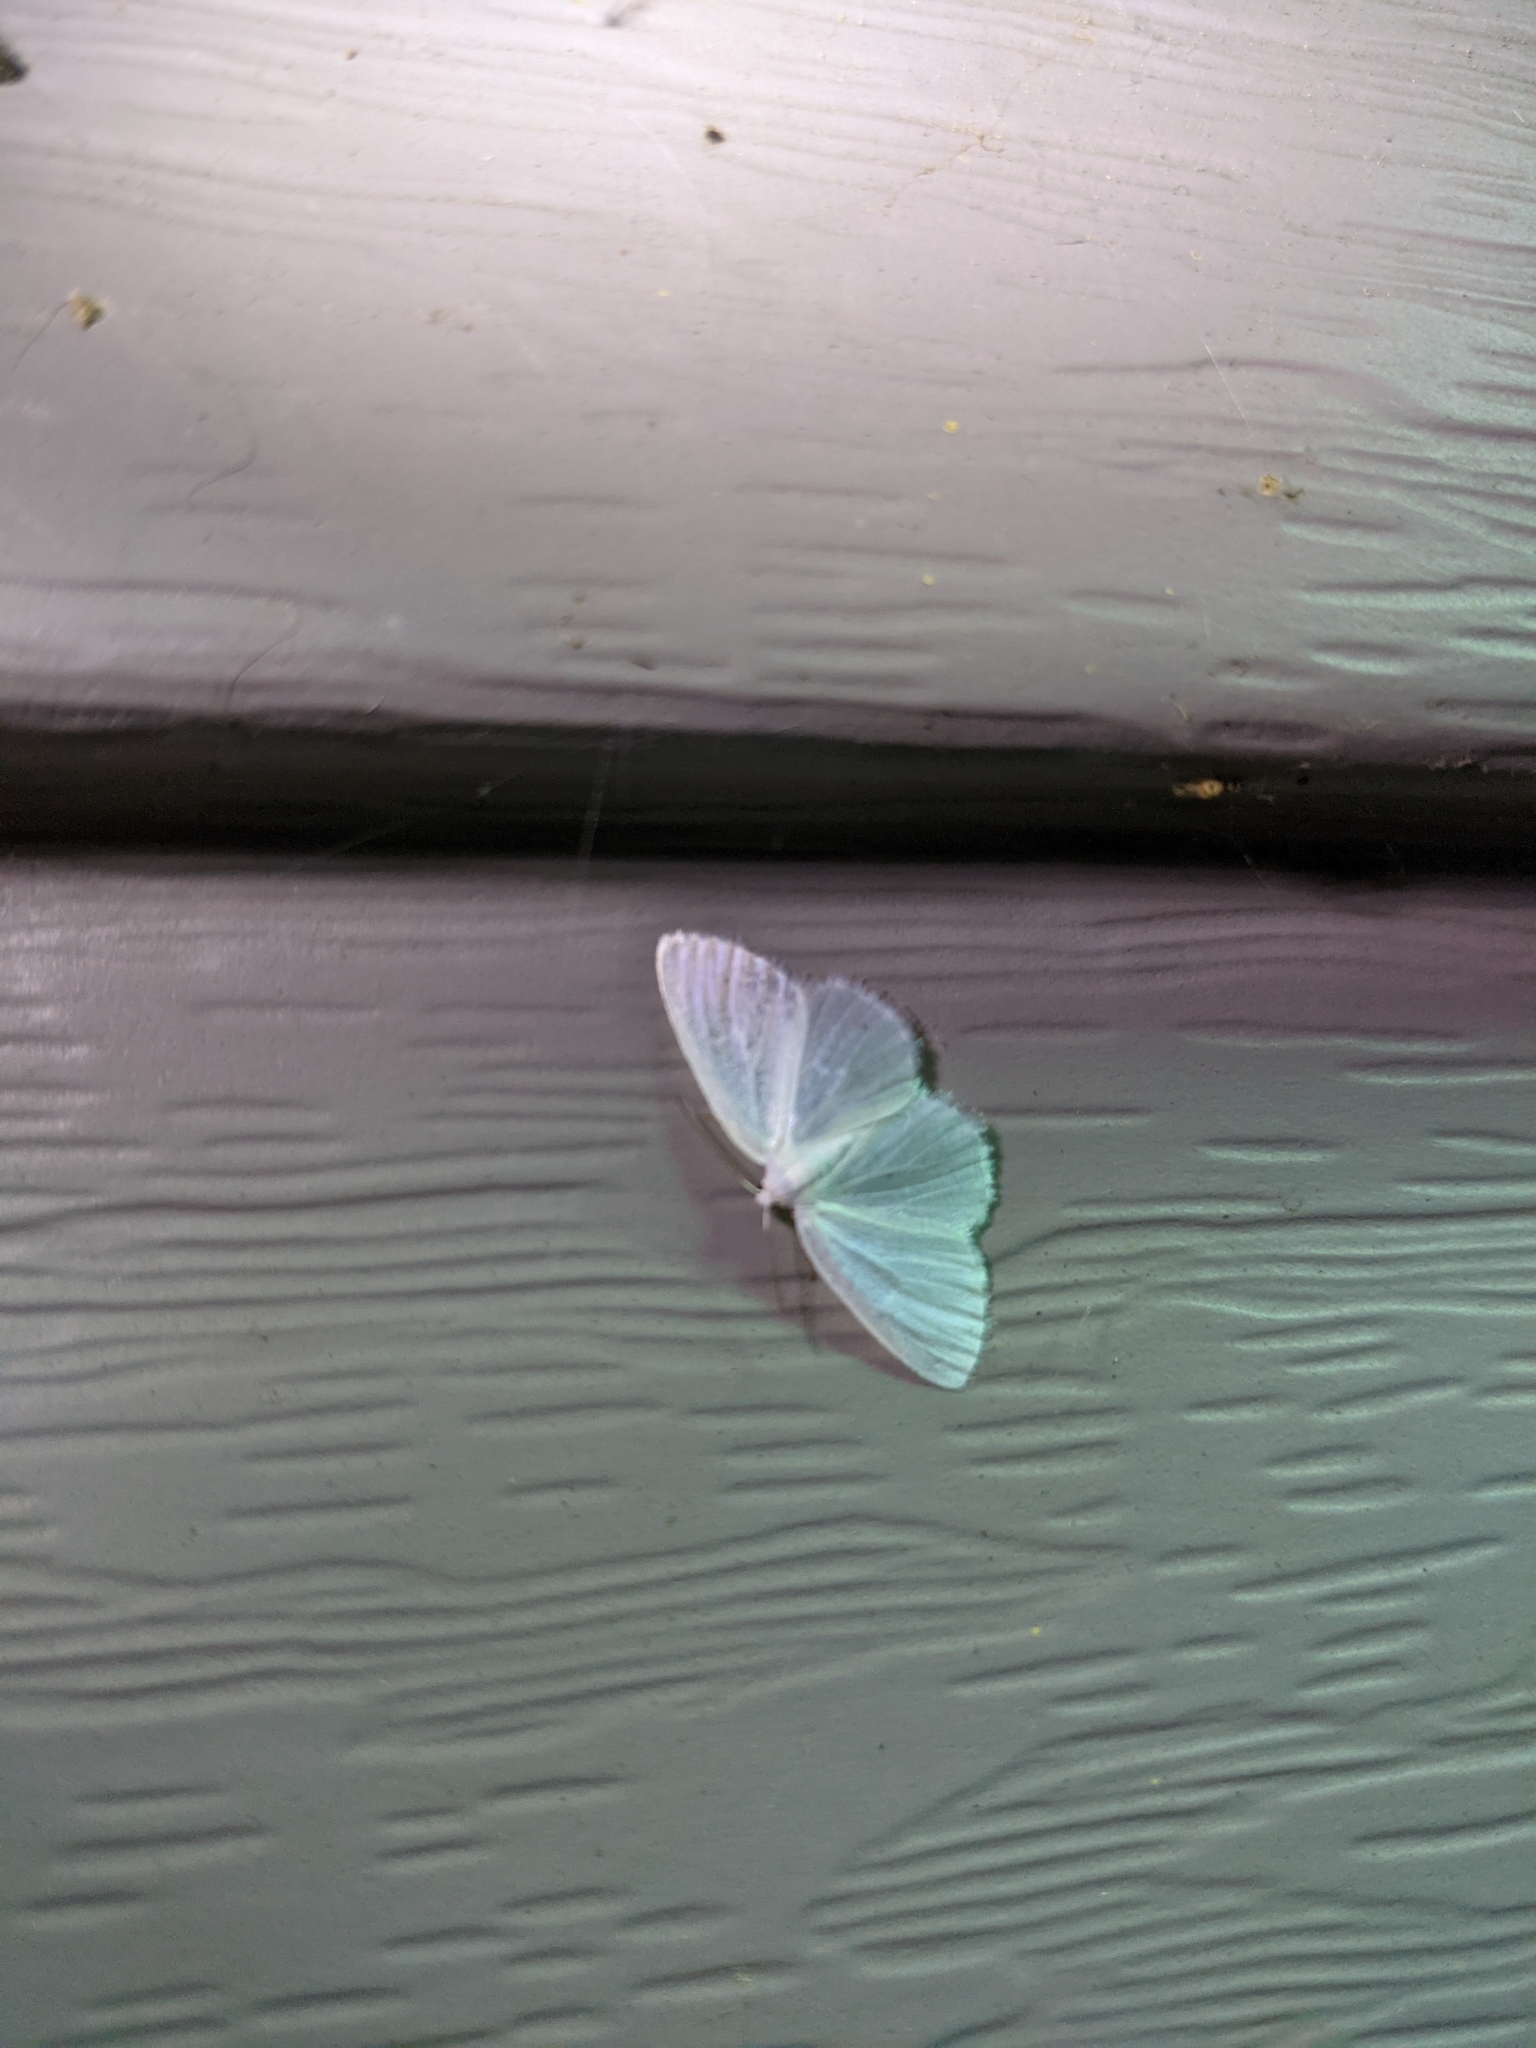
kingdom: Animalia
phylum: Arthropoda
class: Insecta
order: Lepidoptera
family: Geometridae
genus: Lomographa
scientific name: Lomographa vestaliata
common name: White spring moth
